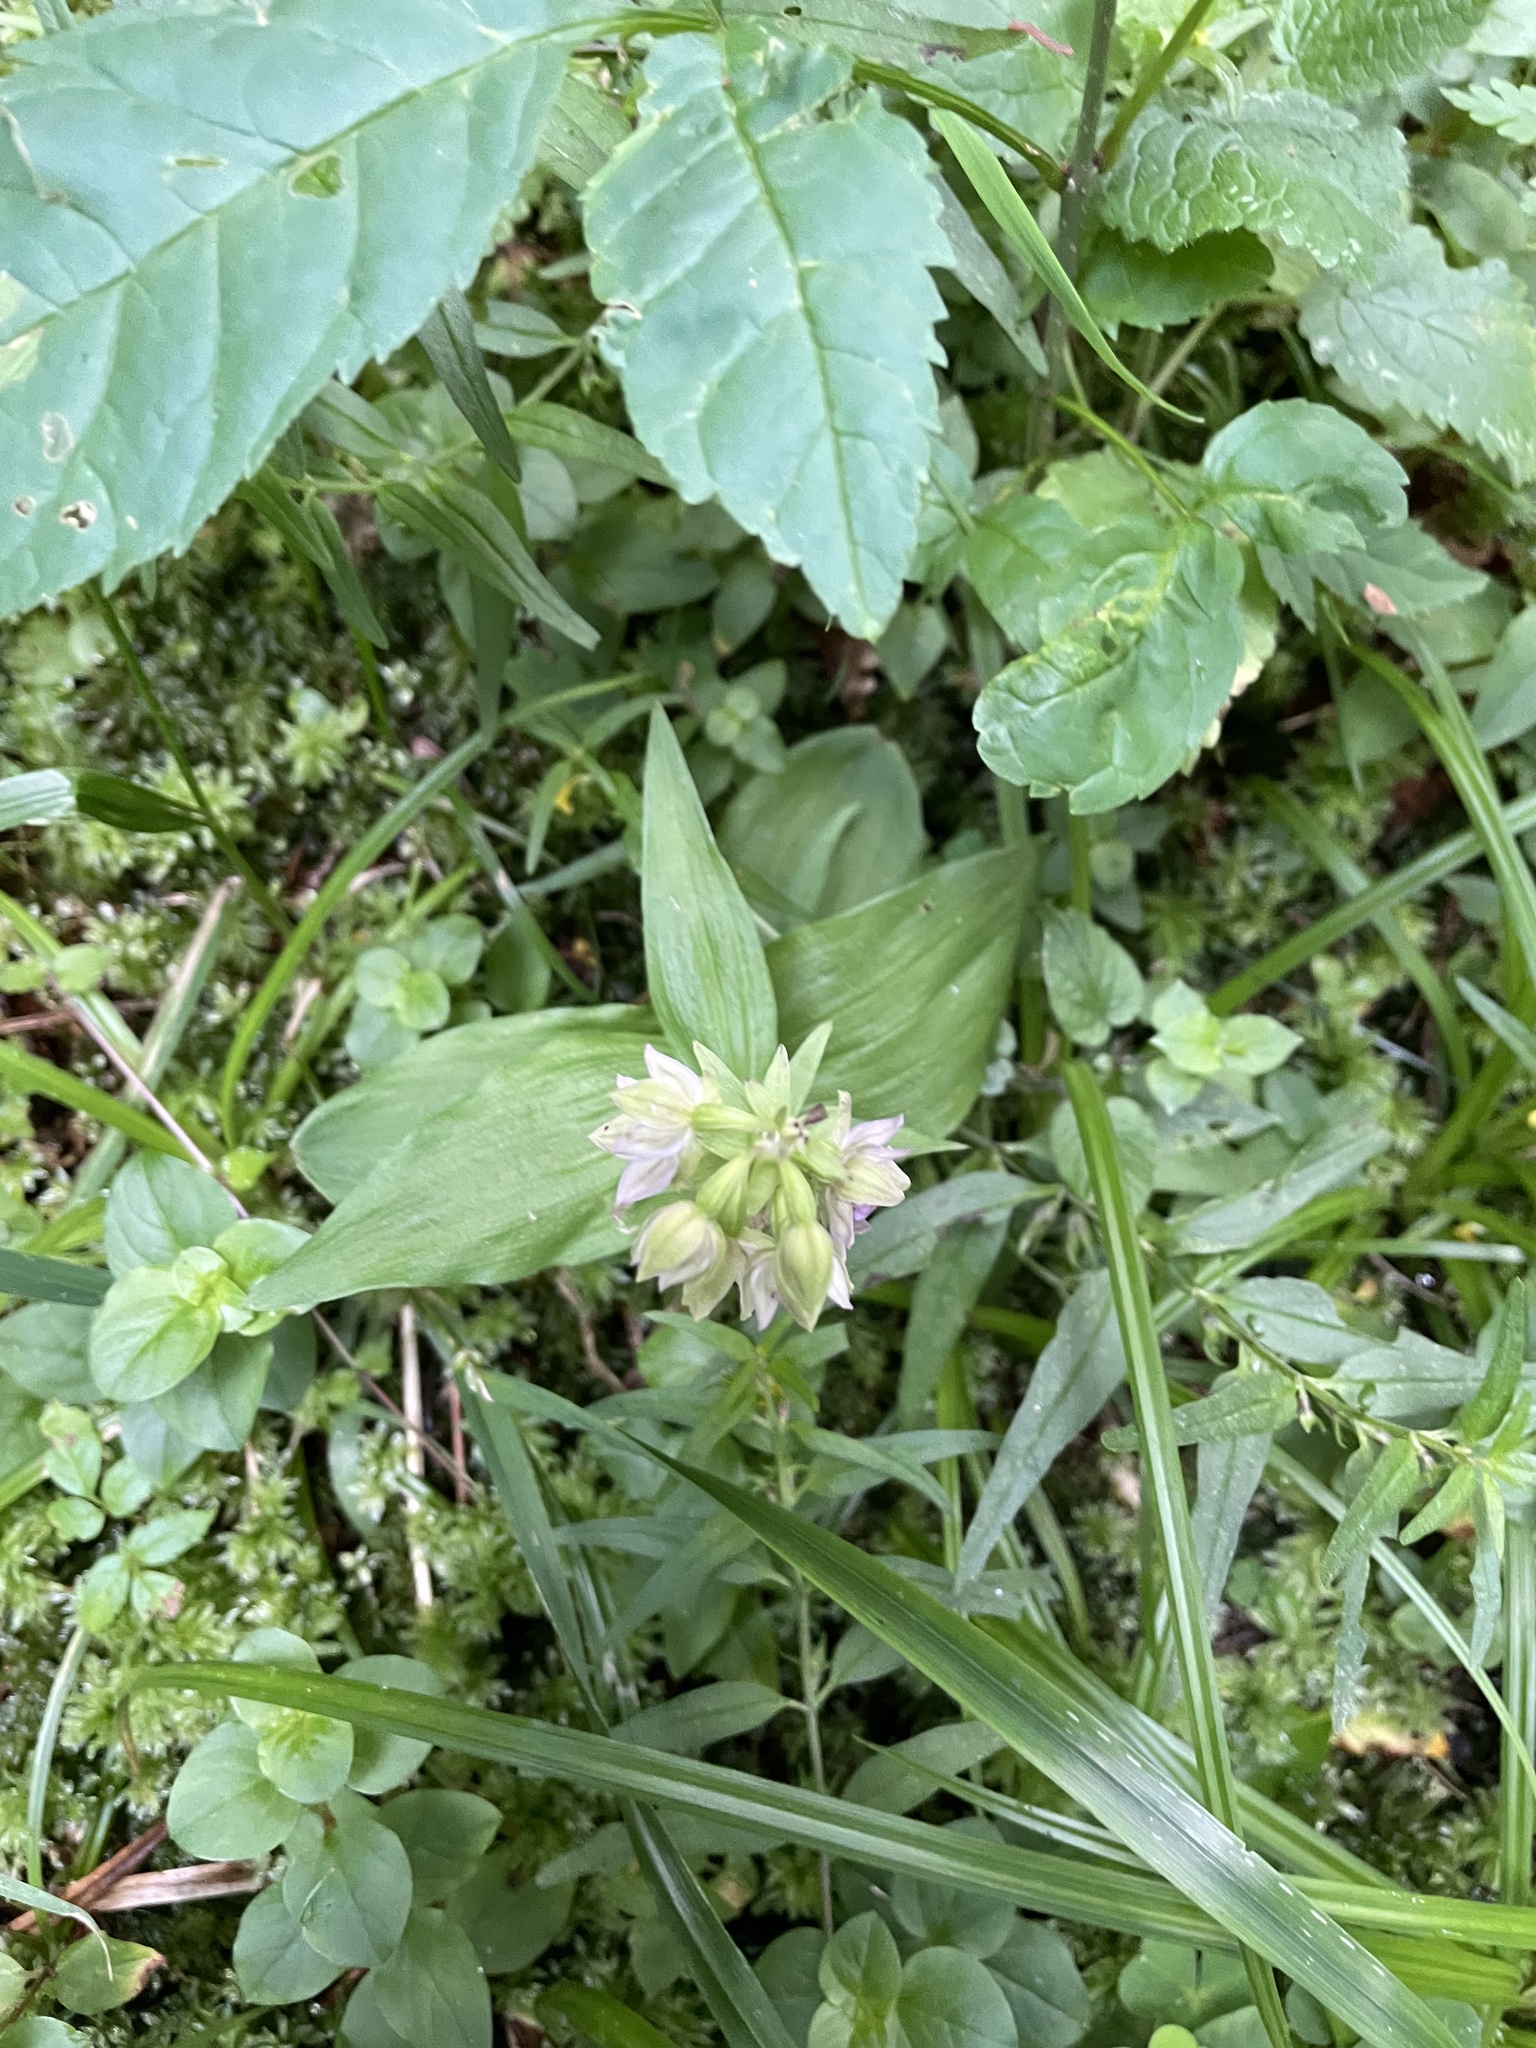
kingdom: Plantae
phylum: Tracheophyta
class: Liliopsida
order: Asparagales
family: Orchidaceae
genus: Epipactis
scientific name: Epipactis helleborine
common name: Broad-leaved helleborine
